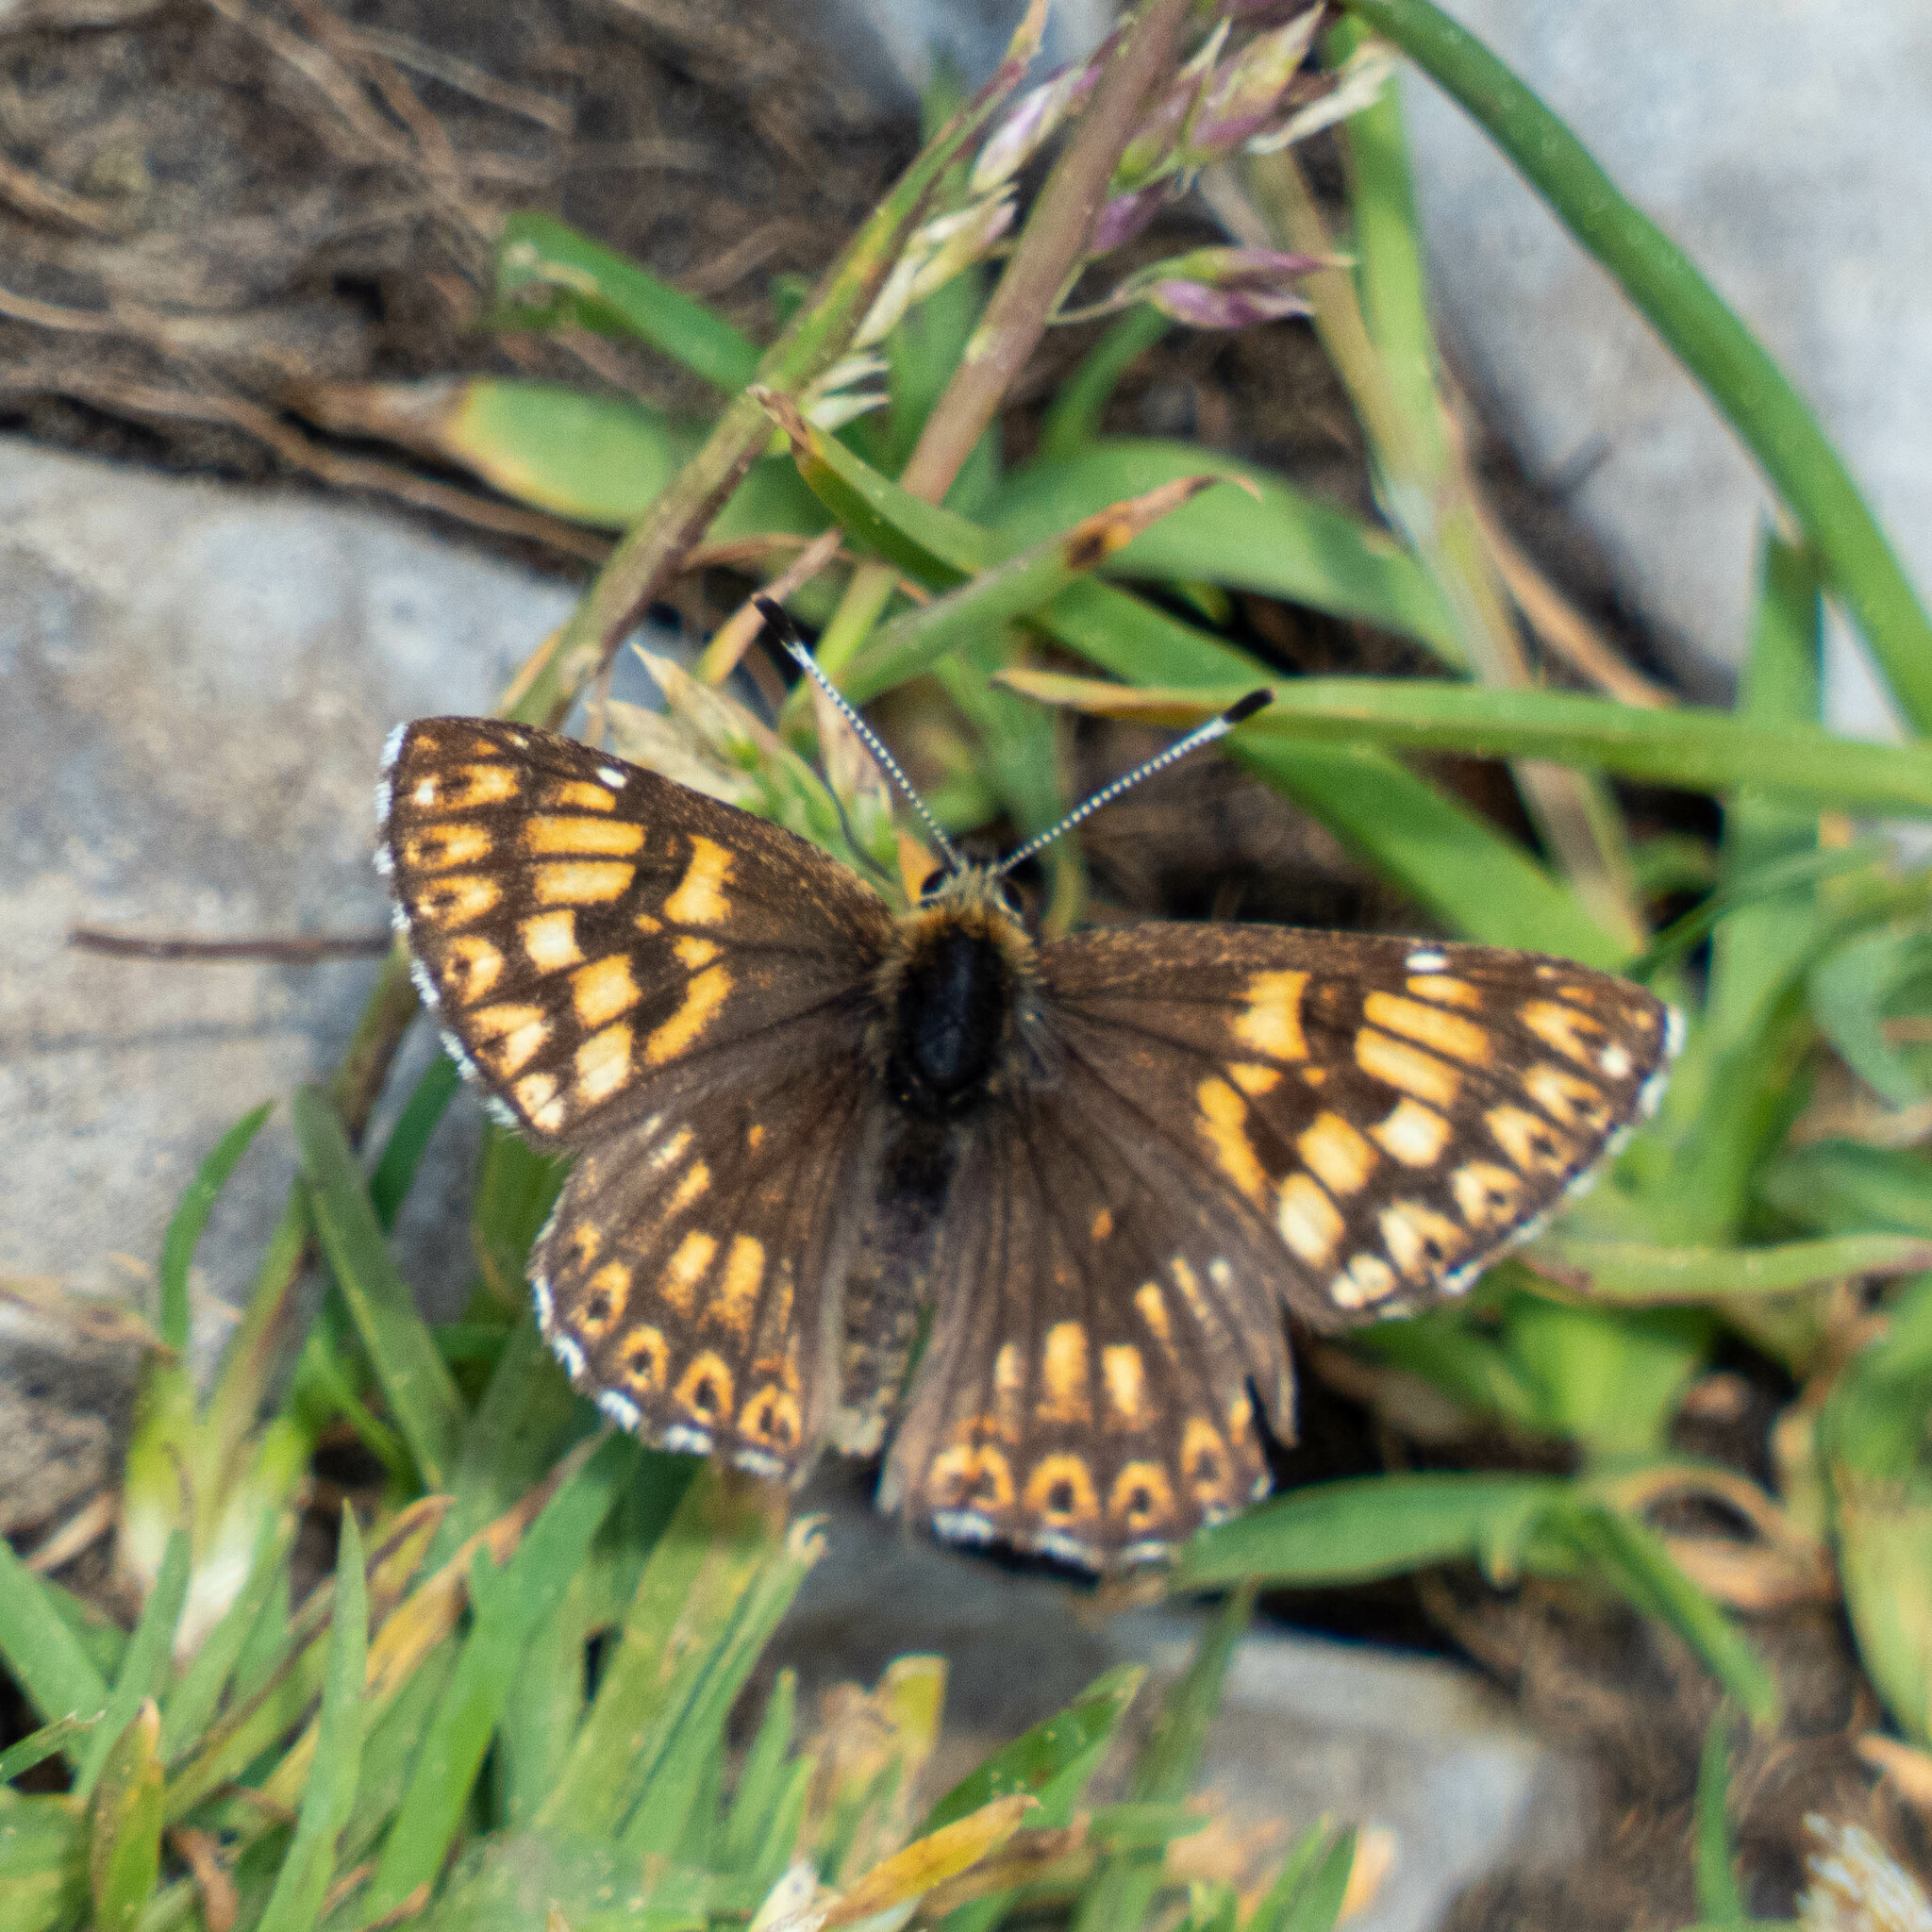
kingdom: Animalia
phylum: Arthropoda
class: Insecta
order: Lepidoptera
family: Riodinidae
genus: Hamearis
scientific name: Hamearis lucina
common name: Duke of burgundy fritillary
